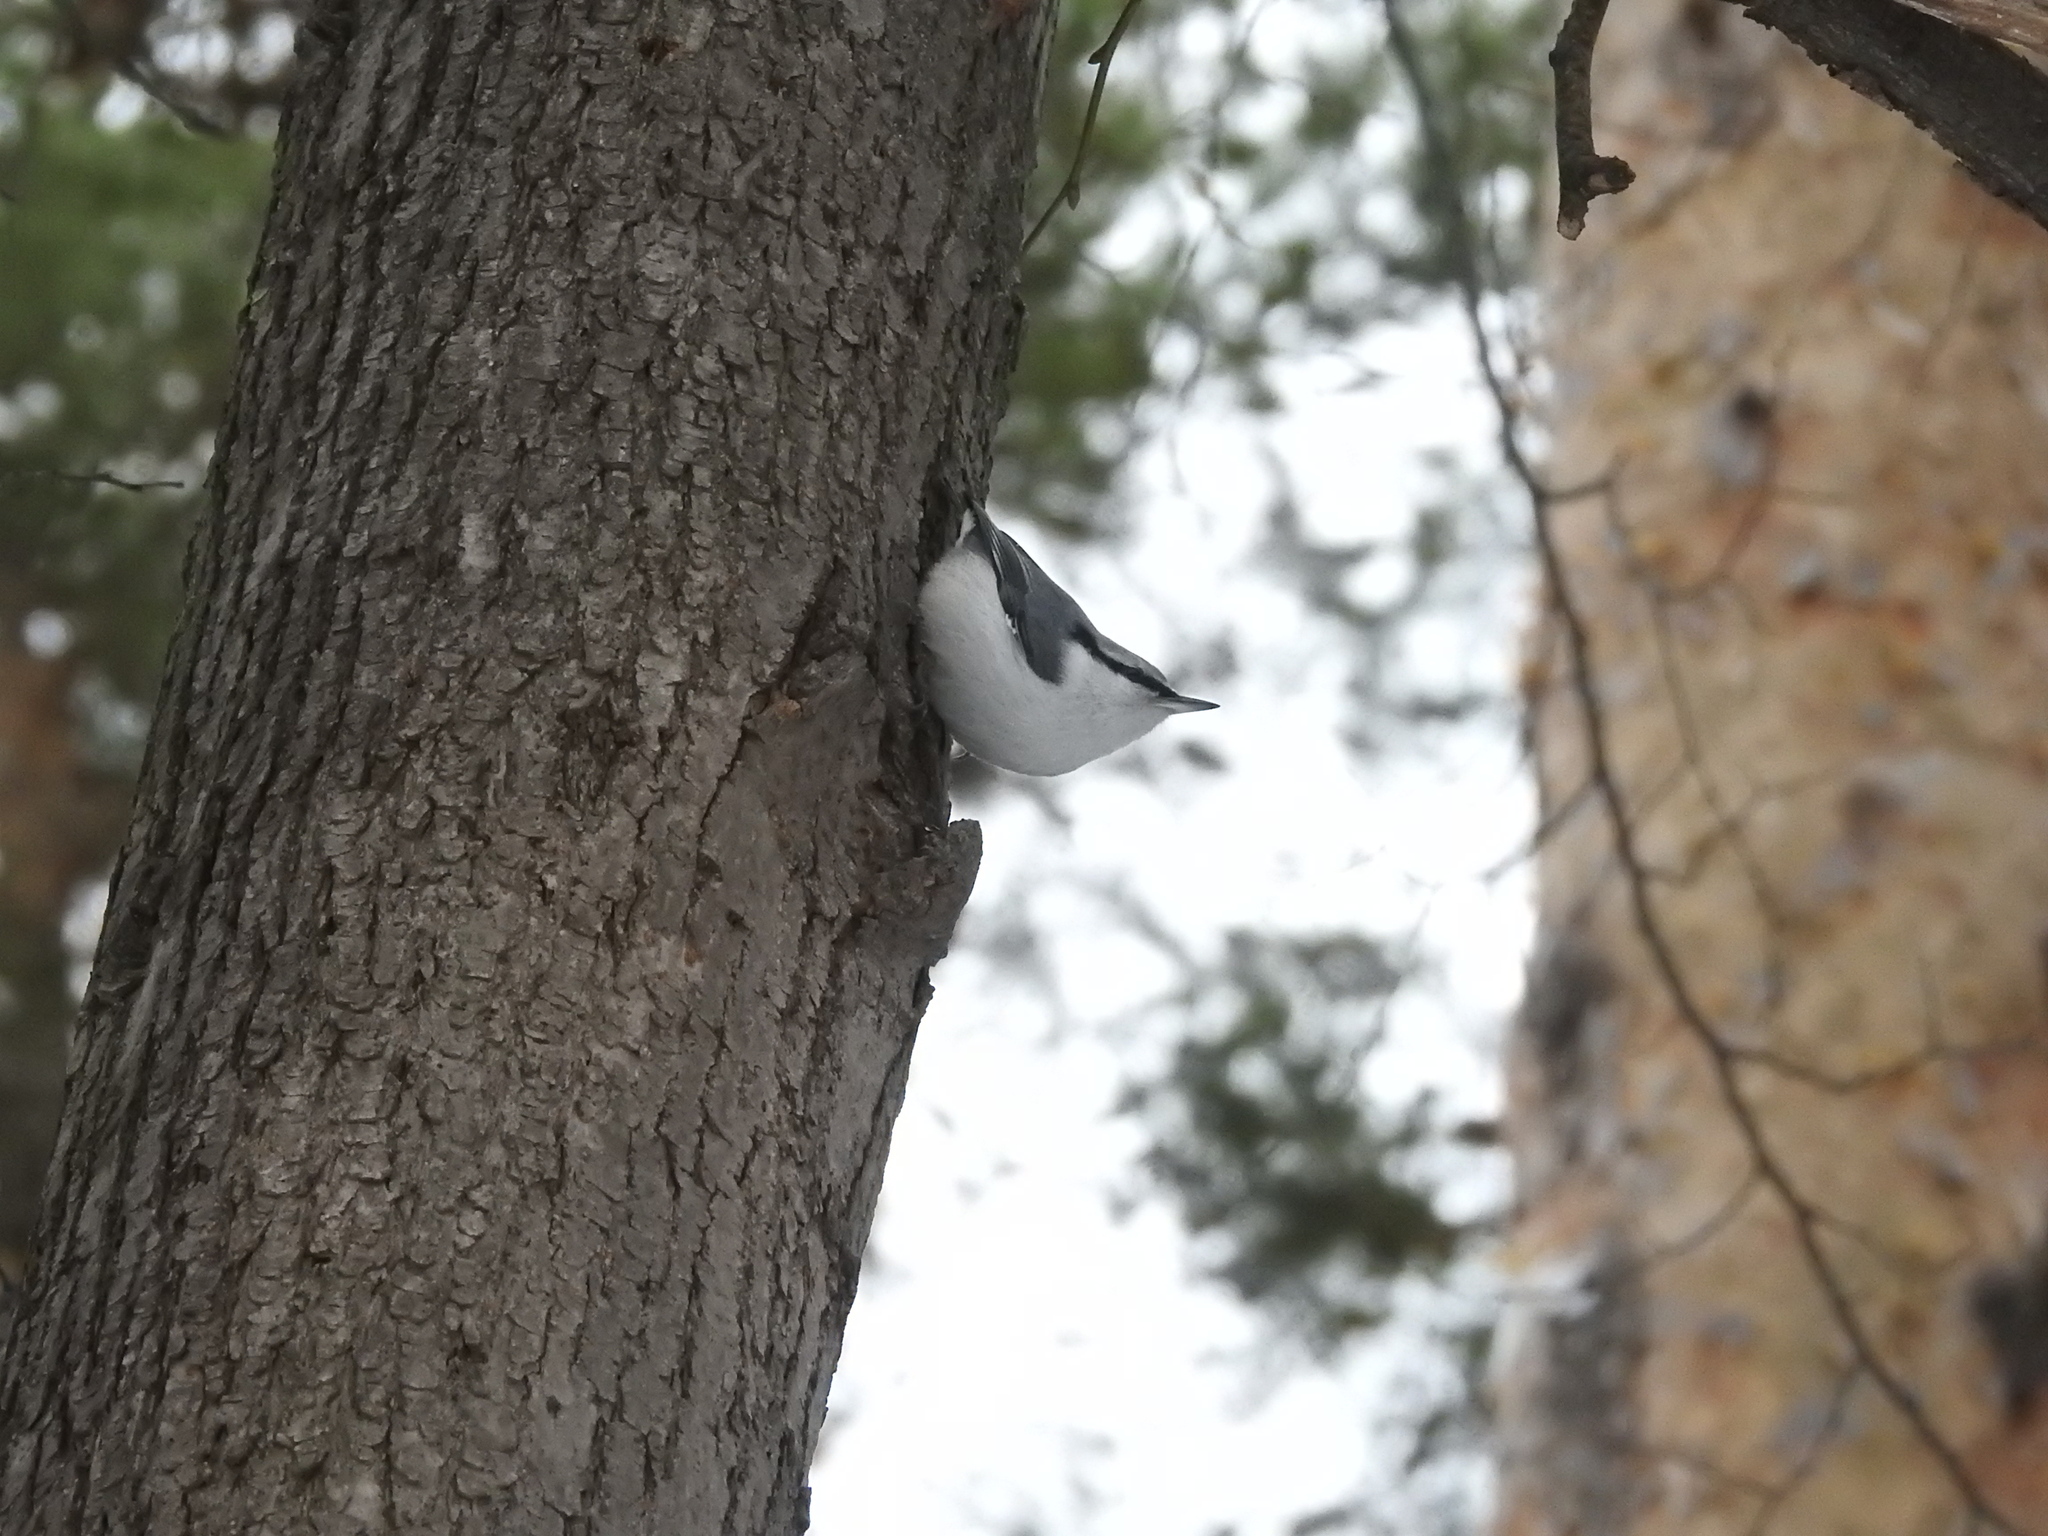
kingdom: Animalia
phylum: Chordata
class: Aves
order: Passeriformes
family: Sittidae
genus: Sitta
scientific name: Sitta europaea
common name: Eurasian nuthatch
